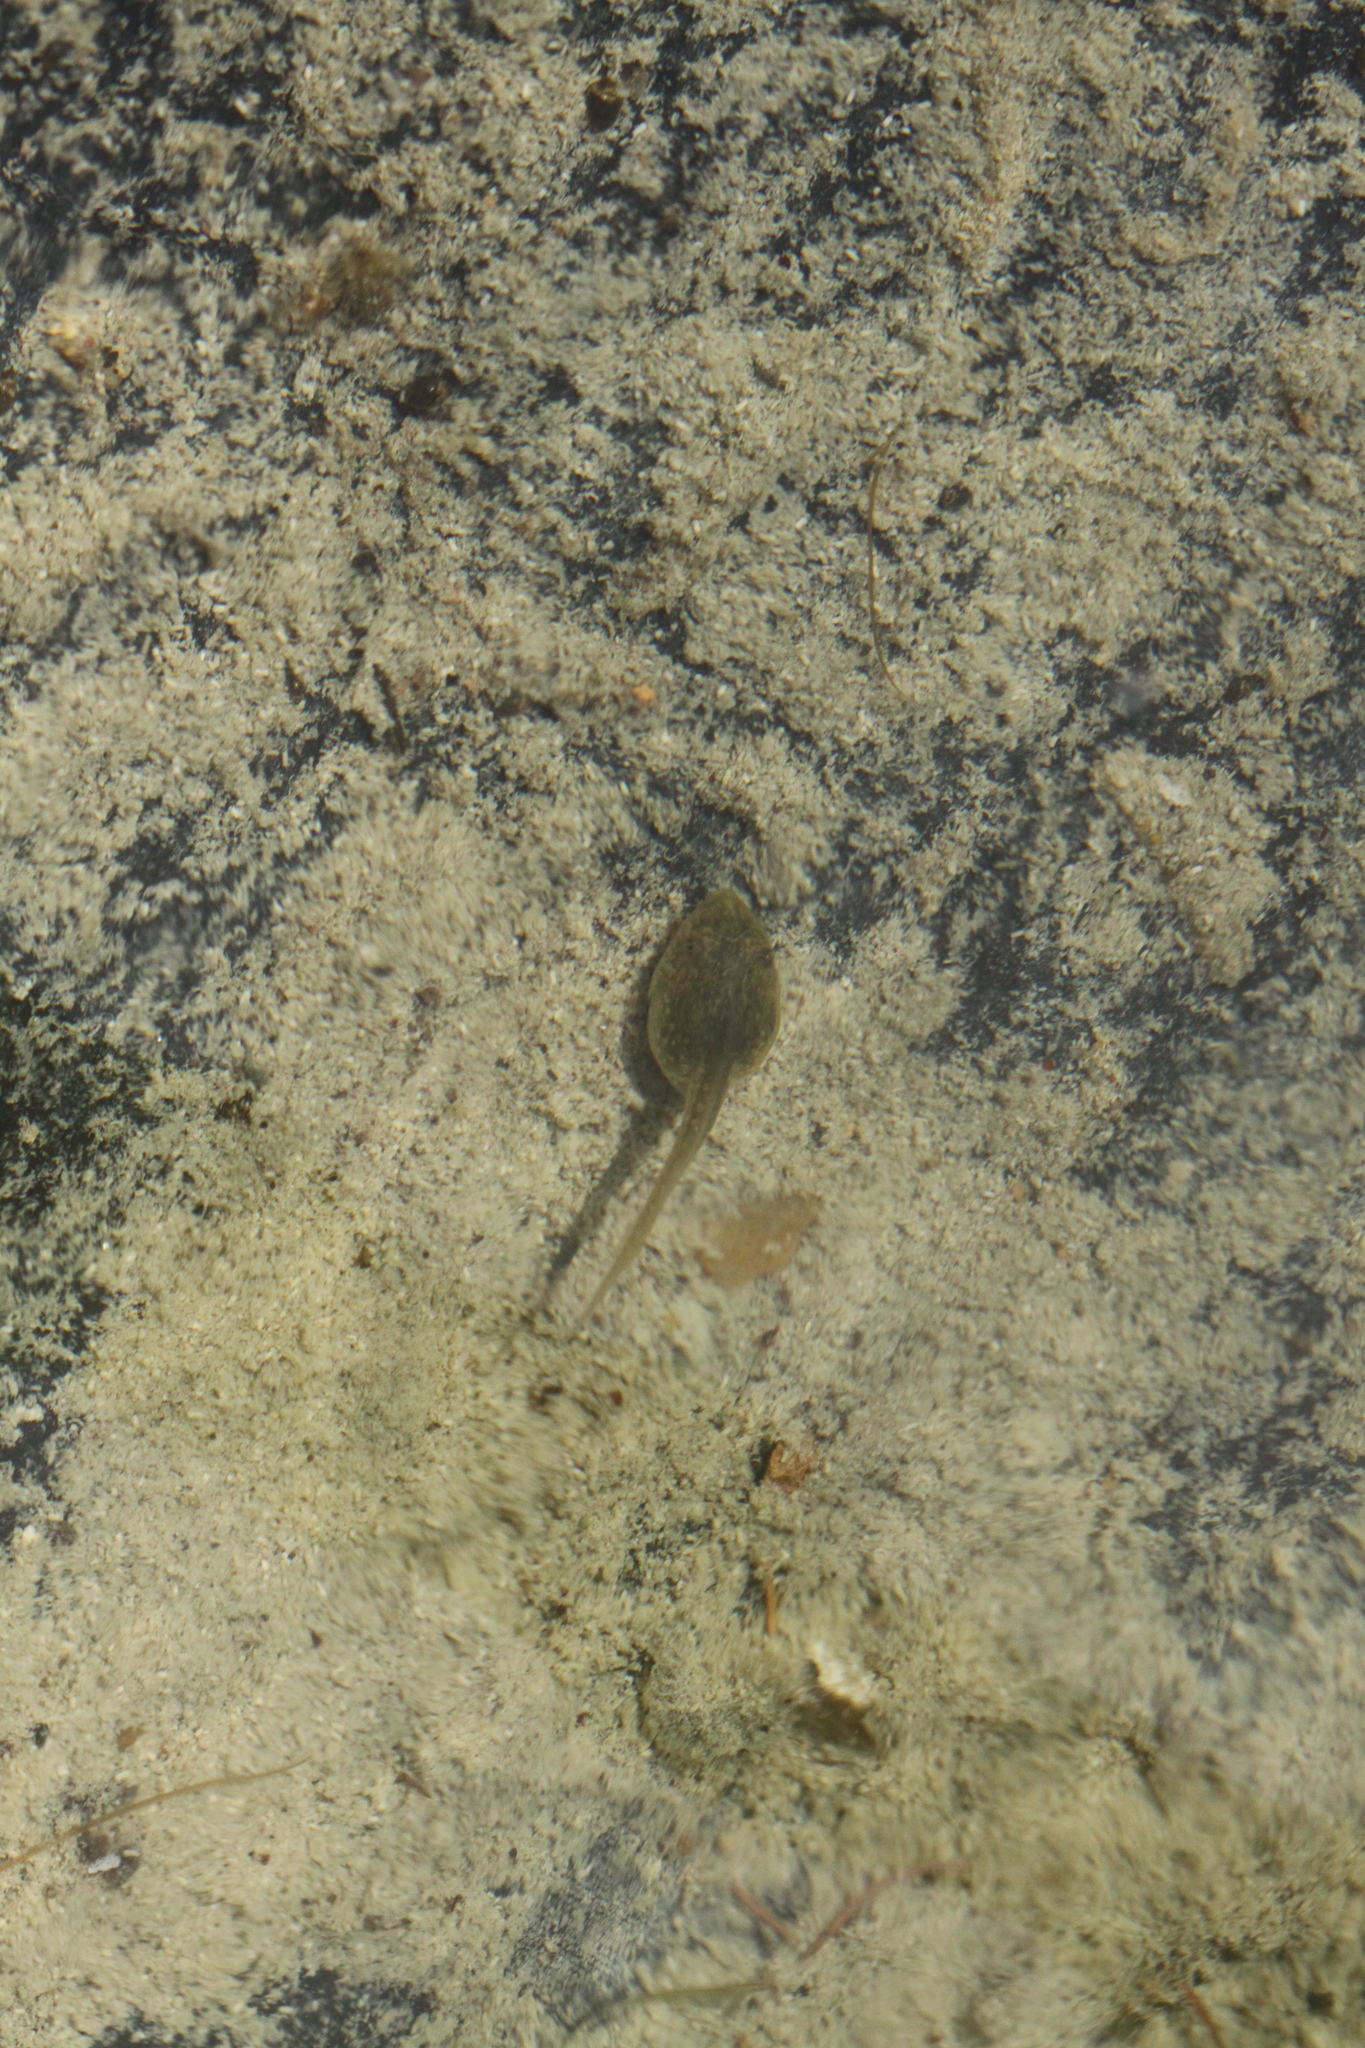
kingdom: Animalia
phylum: Chordata
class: Amphibia
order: Anura
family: Pelodytidae
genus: Pelodytes
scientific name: Pelodytes punctatus
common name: Parsley frog
